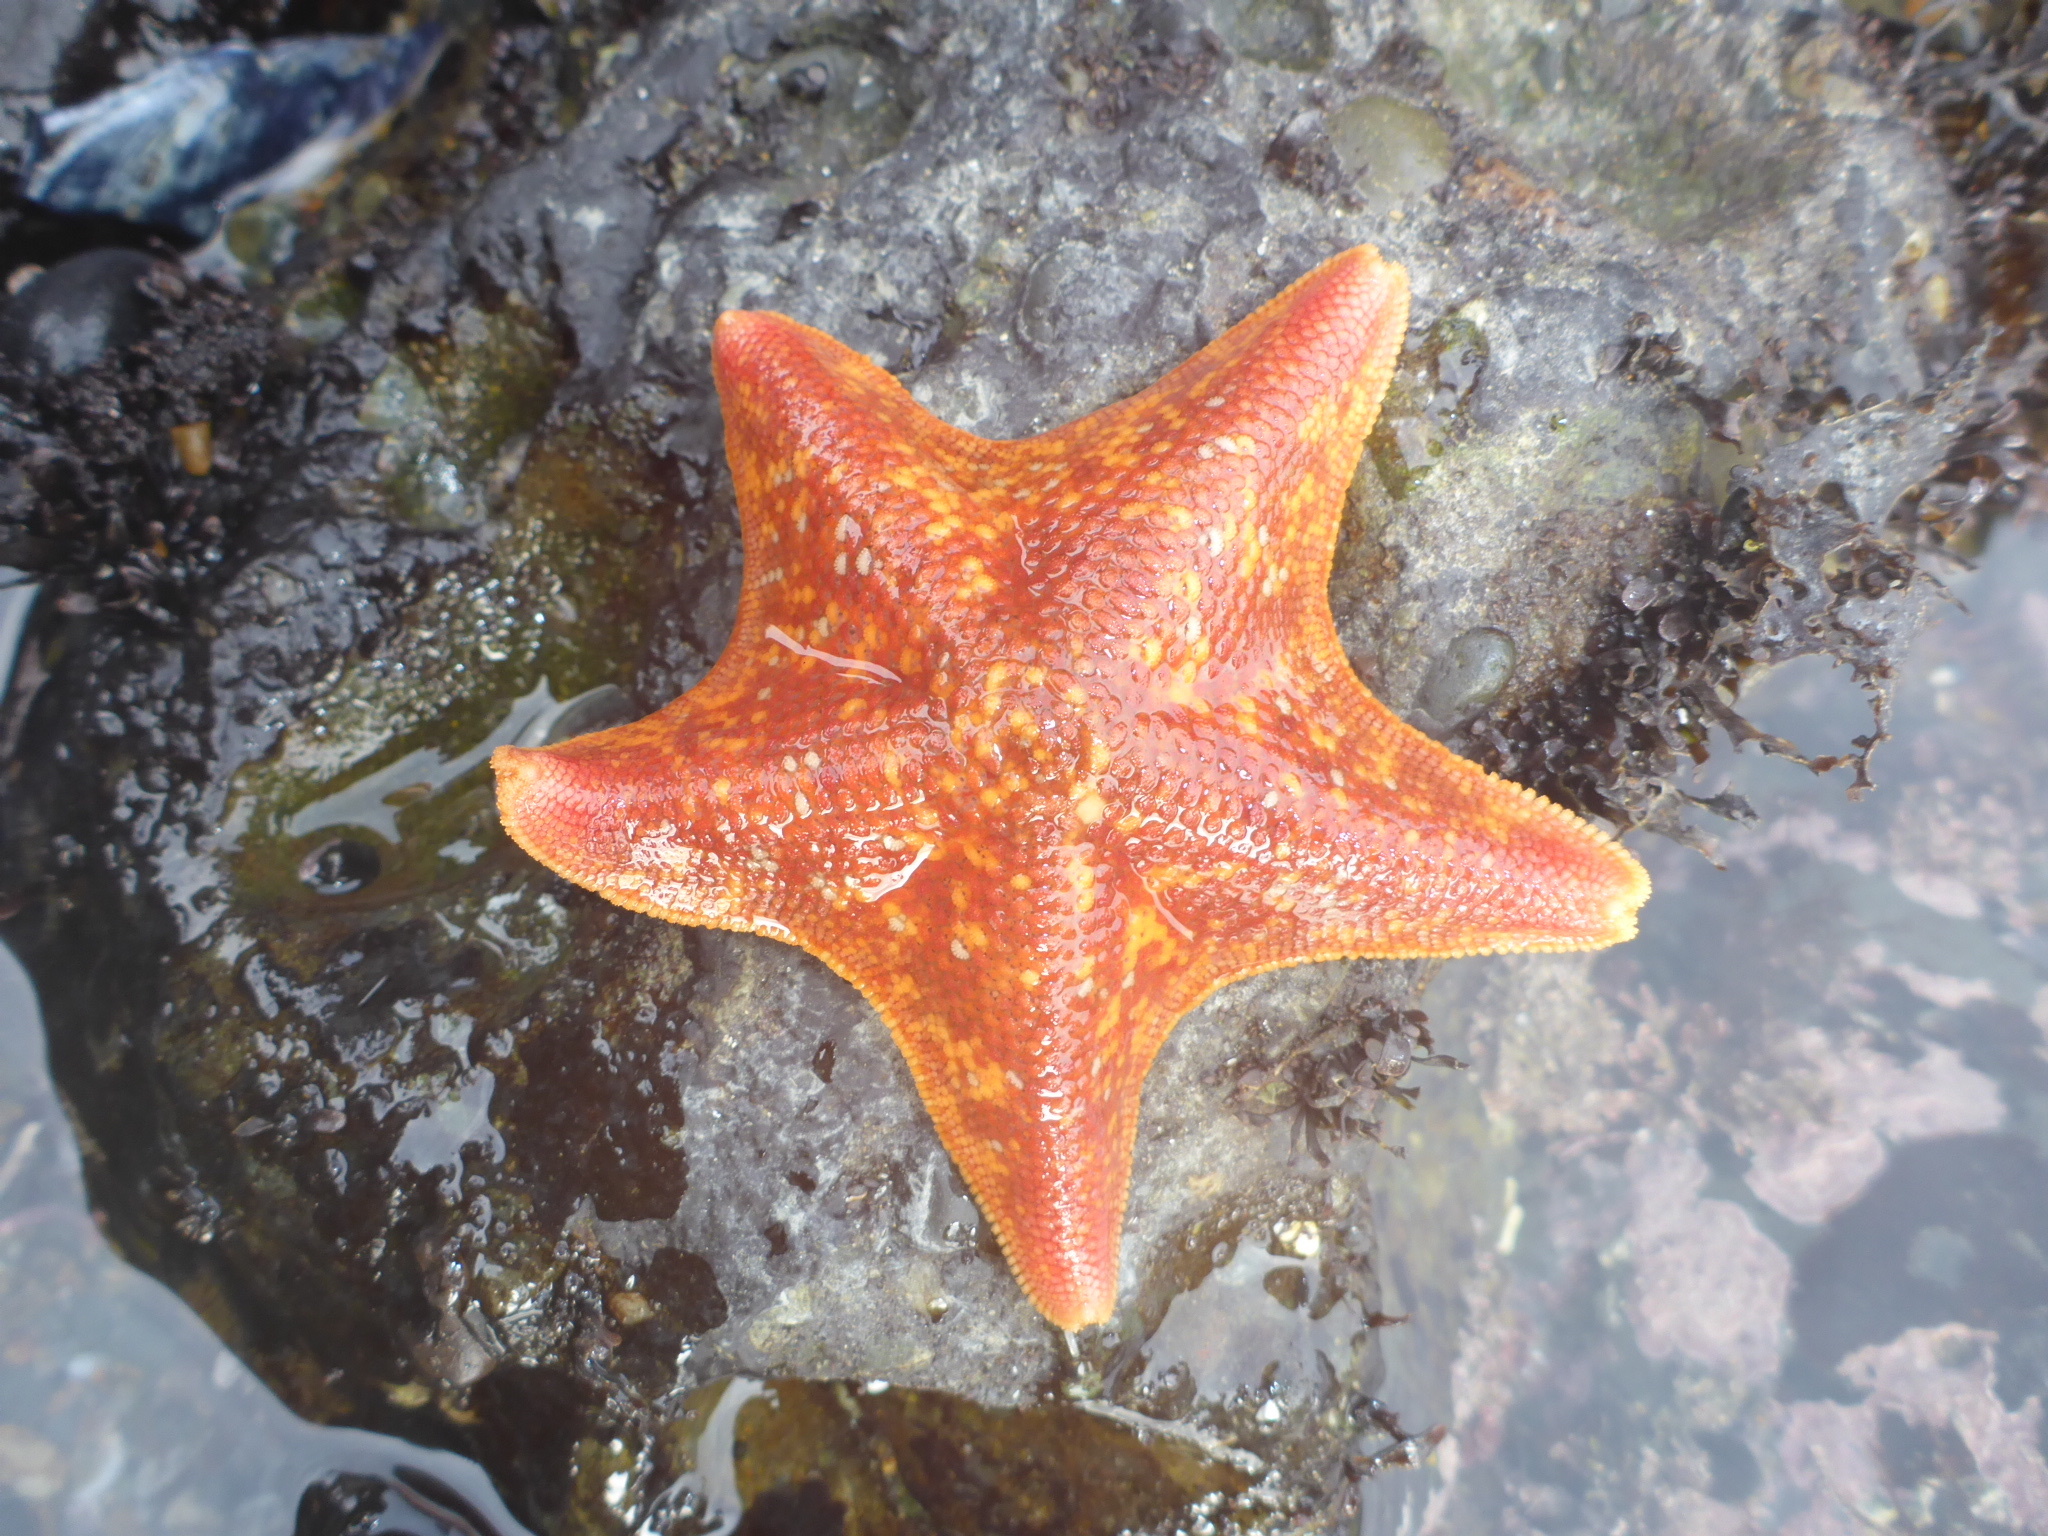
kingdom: Animalia
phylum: Echinodermata
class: Asteroidea
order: Valvatida
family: Asterinidae
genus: Patiria
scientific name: Patiria miniata
